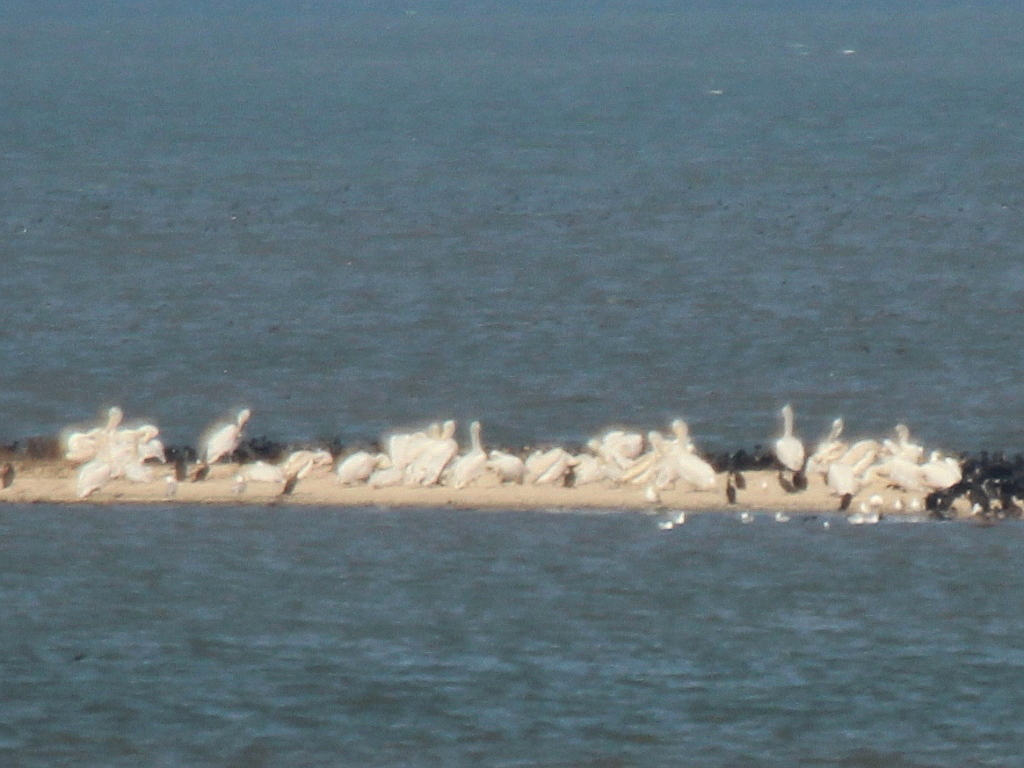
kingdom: Animalia
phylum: Chordata
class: Aves
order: Pelecaniformes
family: Pelecanidae
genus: Pelecanus
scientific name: Pelecanus crispus
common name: Dalmatian pelican
